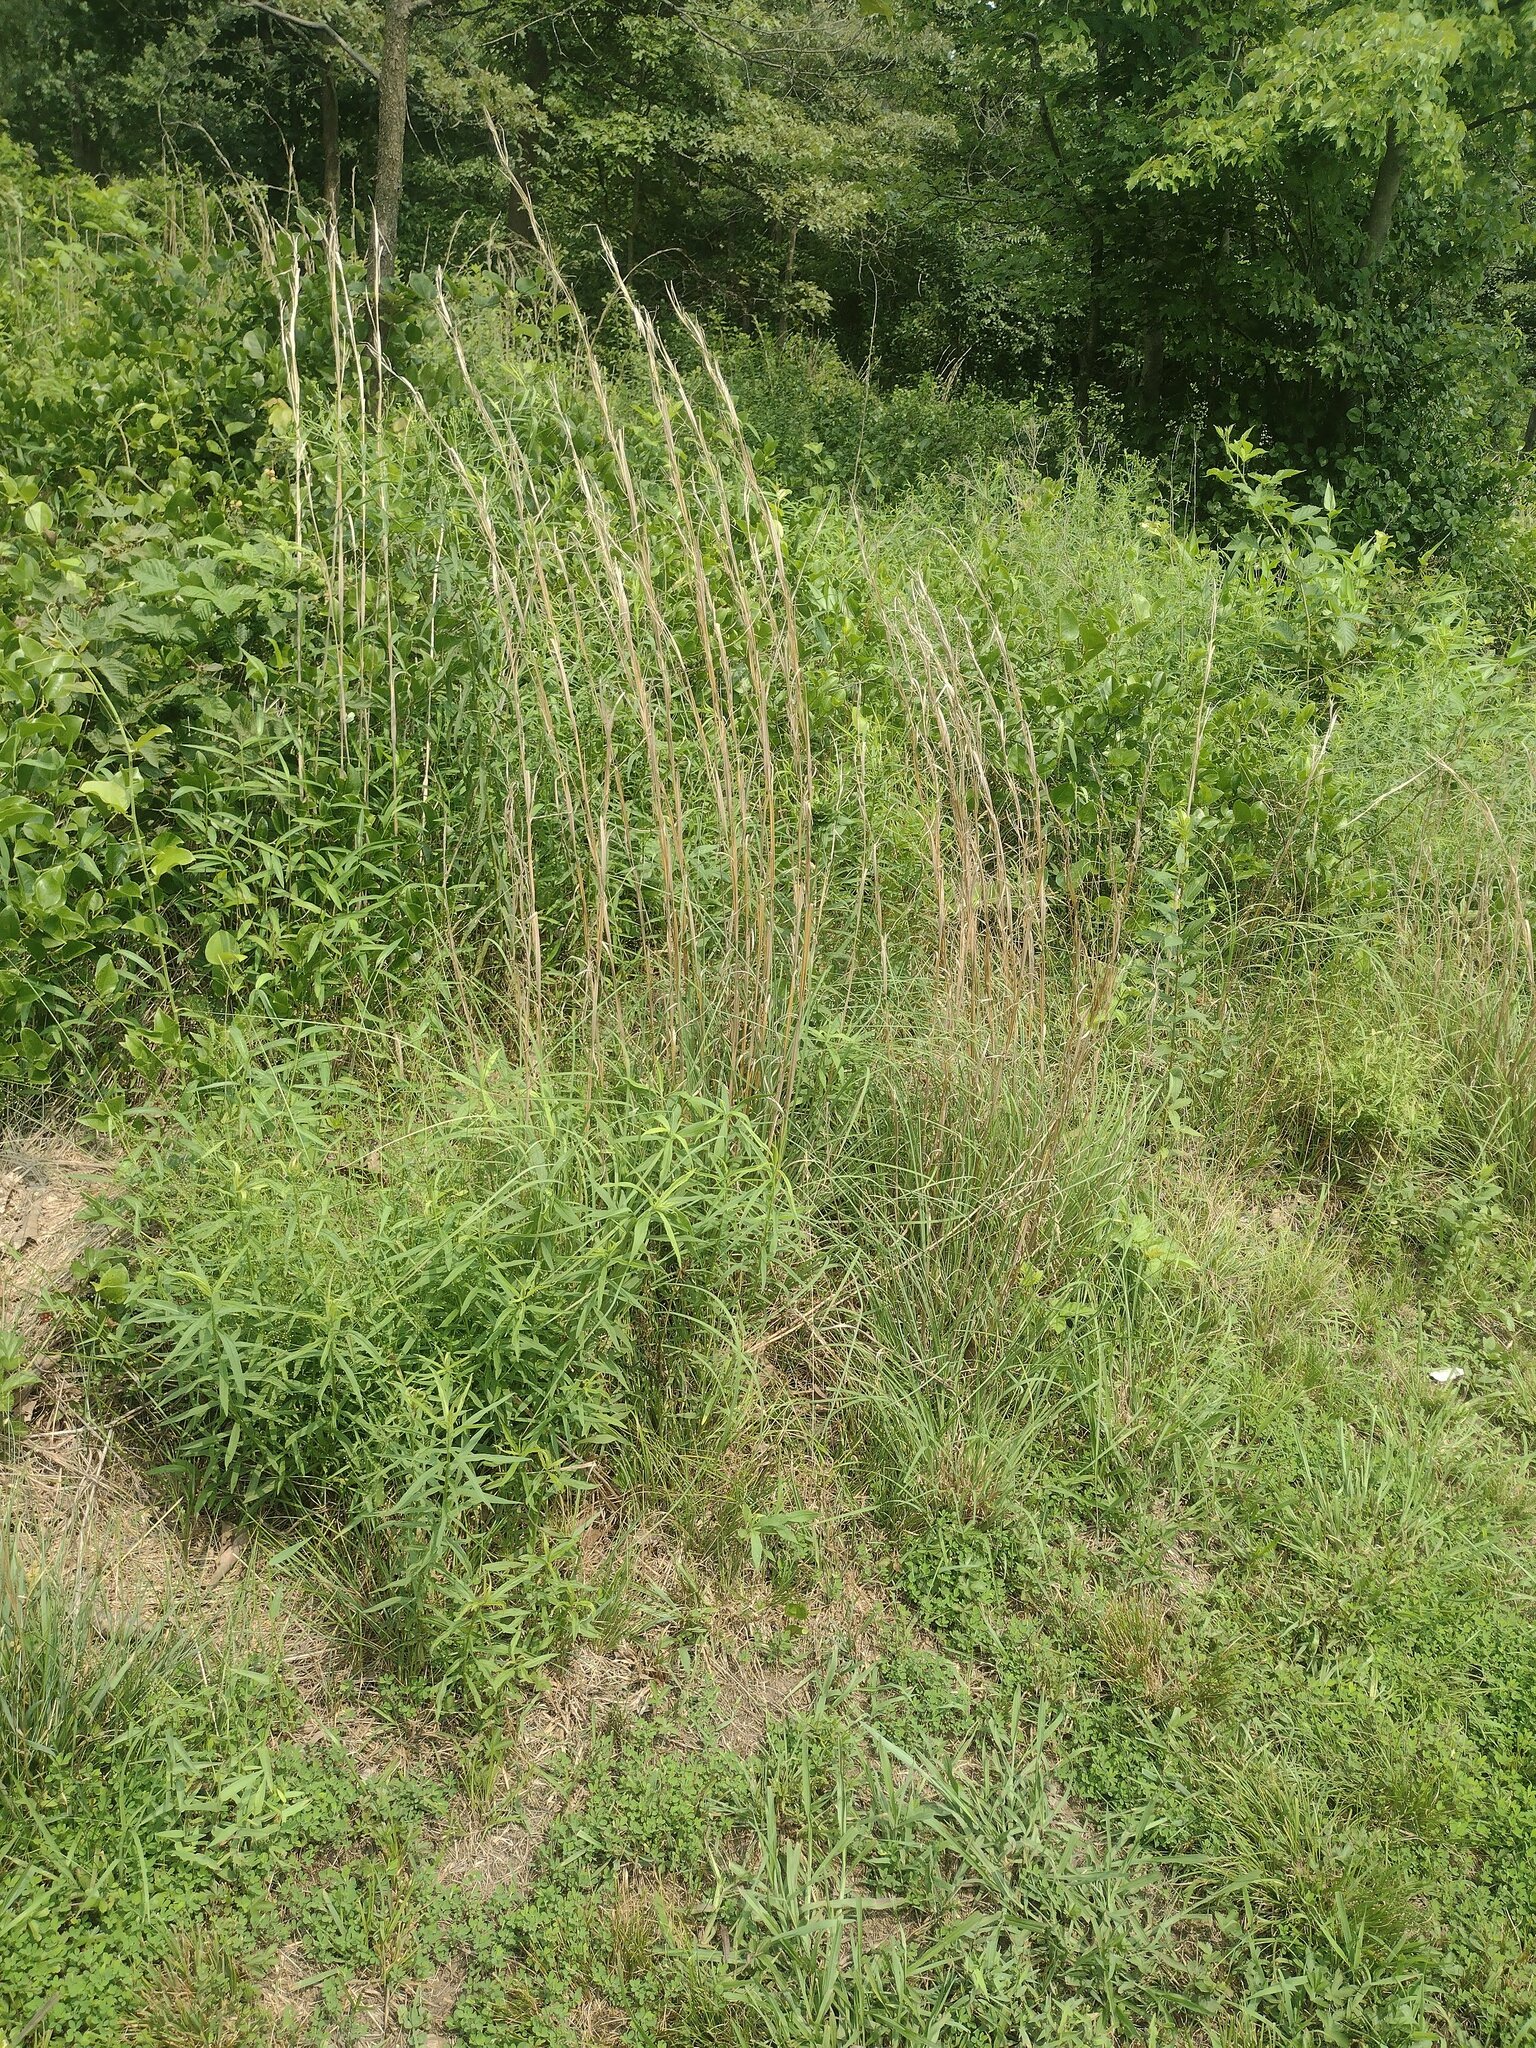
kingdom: Plantae
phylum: Tracheophyta
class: Liliopsida
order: Poales
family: Poaceae
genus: Andropogon
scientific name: Andropogon virginicus
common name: Broomsedge bluestem
